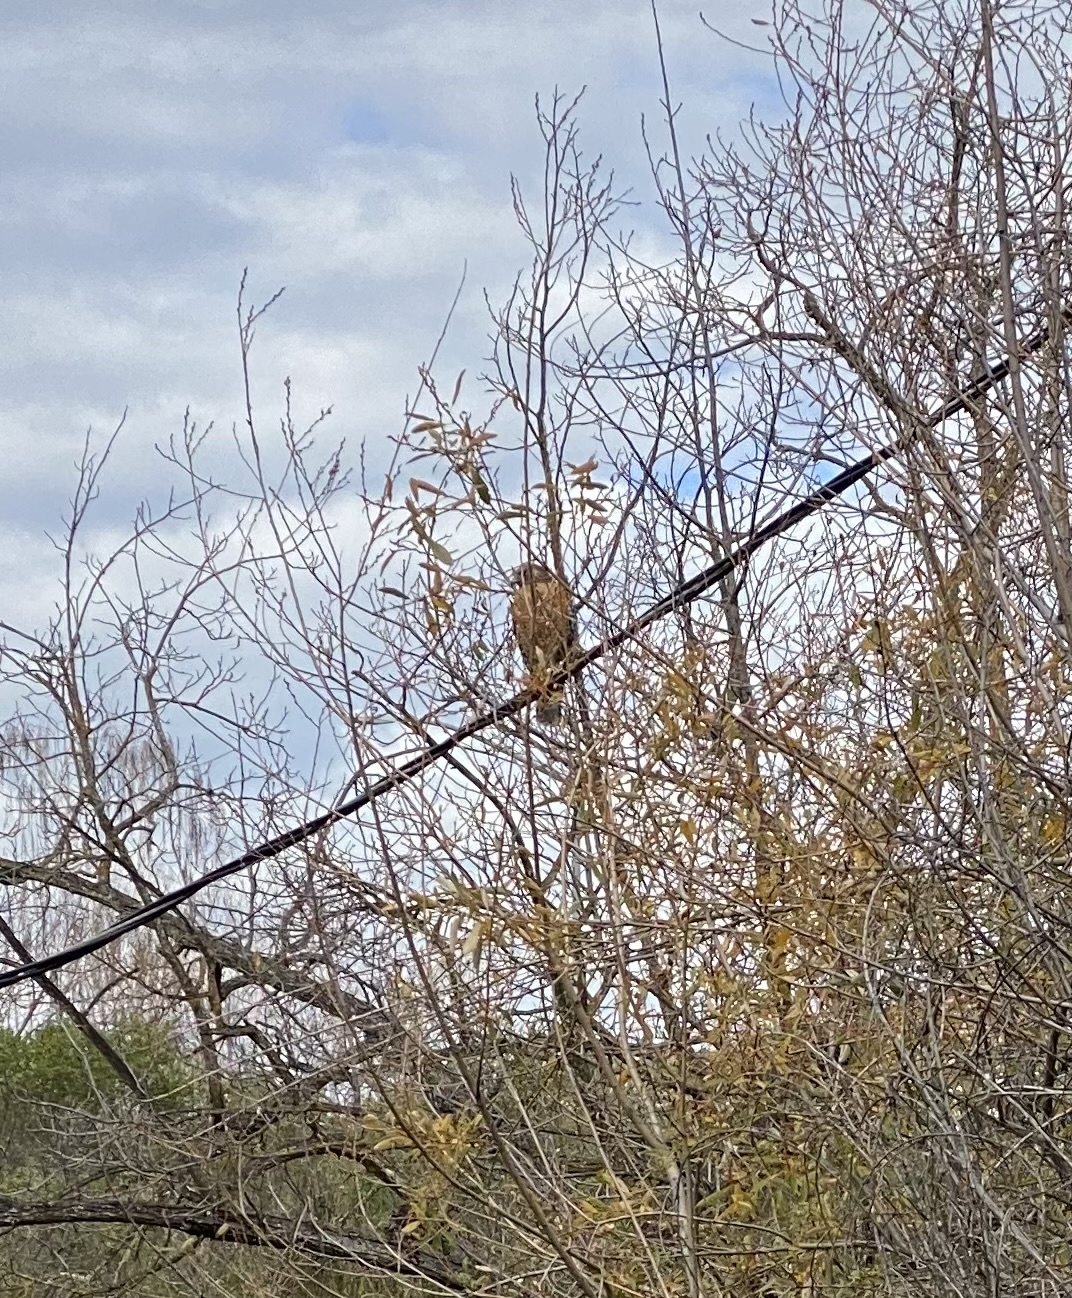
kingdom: Animalia
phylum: Chordata
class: Aves
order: Accipitriformes
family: Accipitridae
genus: Buteo
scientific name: Buteo lineatus
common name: Red-shouldered hawk
